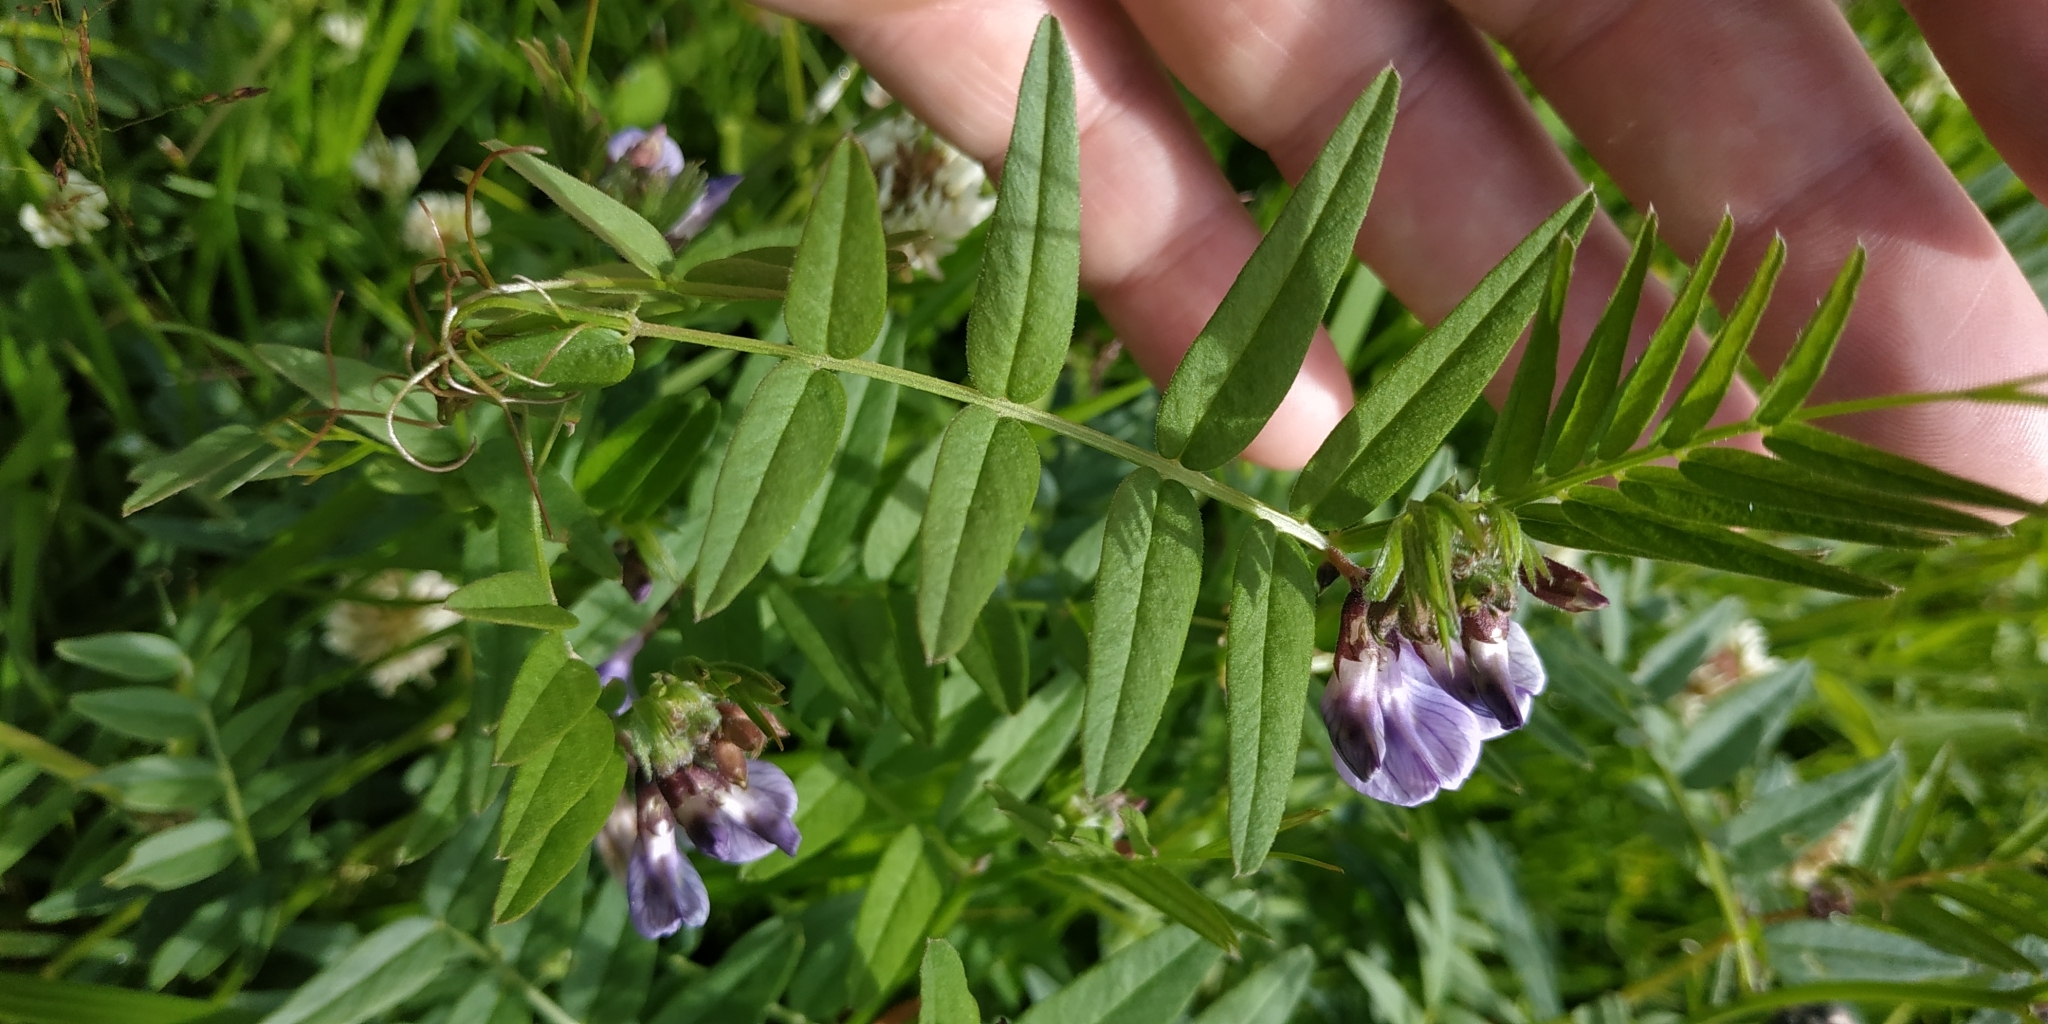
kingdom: Plantae
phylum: Tracheophyta
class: Magnoliopsida
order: Fabales
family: Fabaceae
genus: Vicia
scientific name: Vicia sepium
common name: Bush vetch
